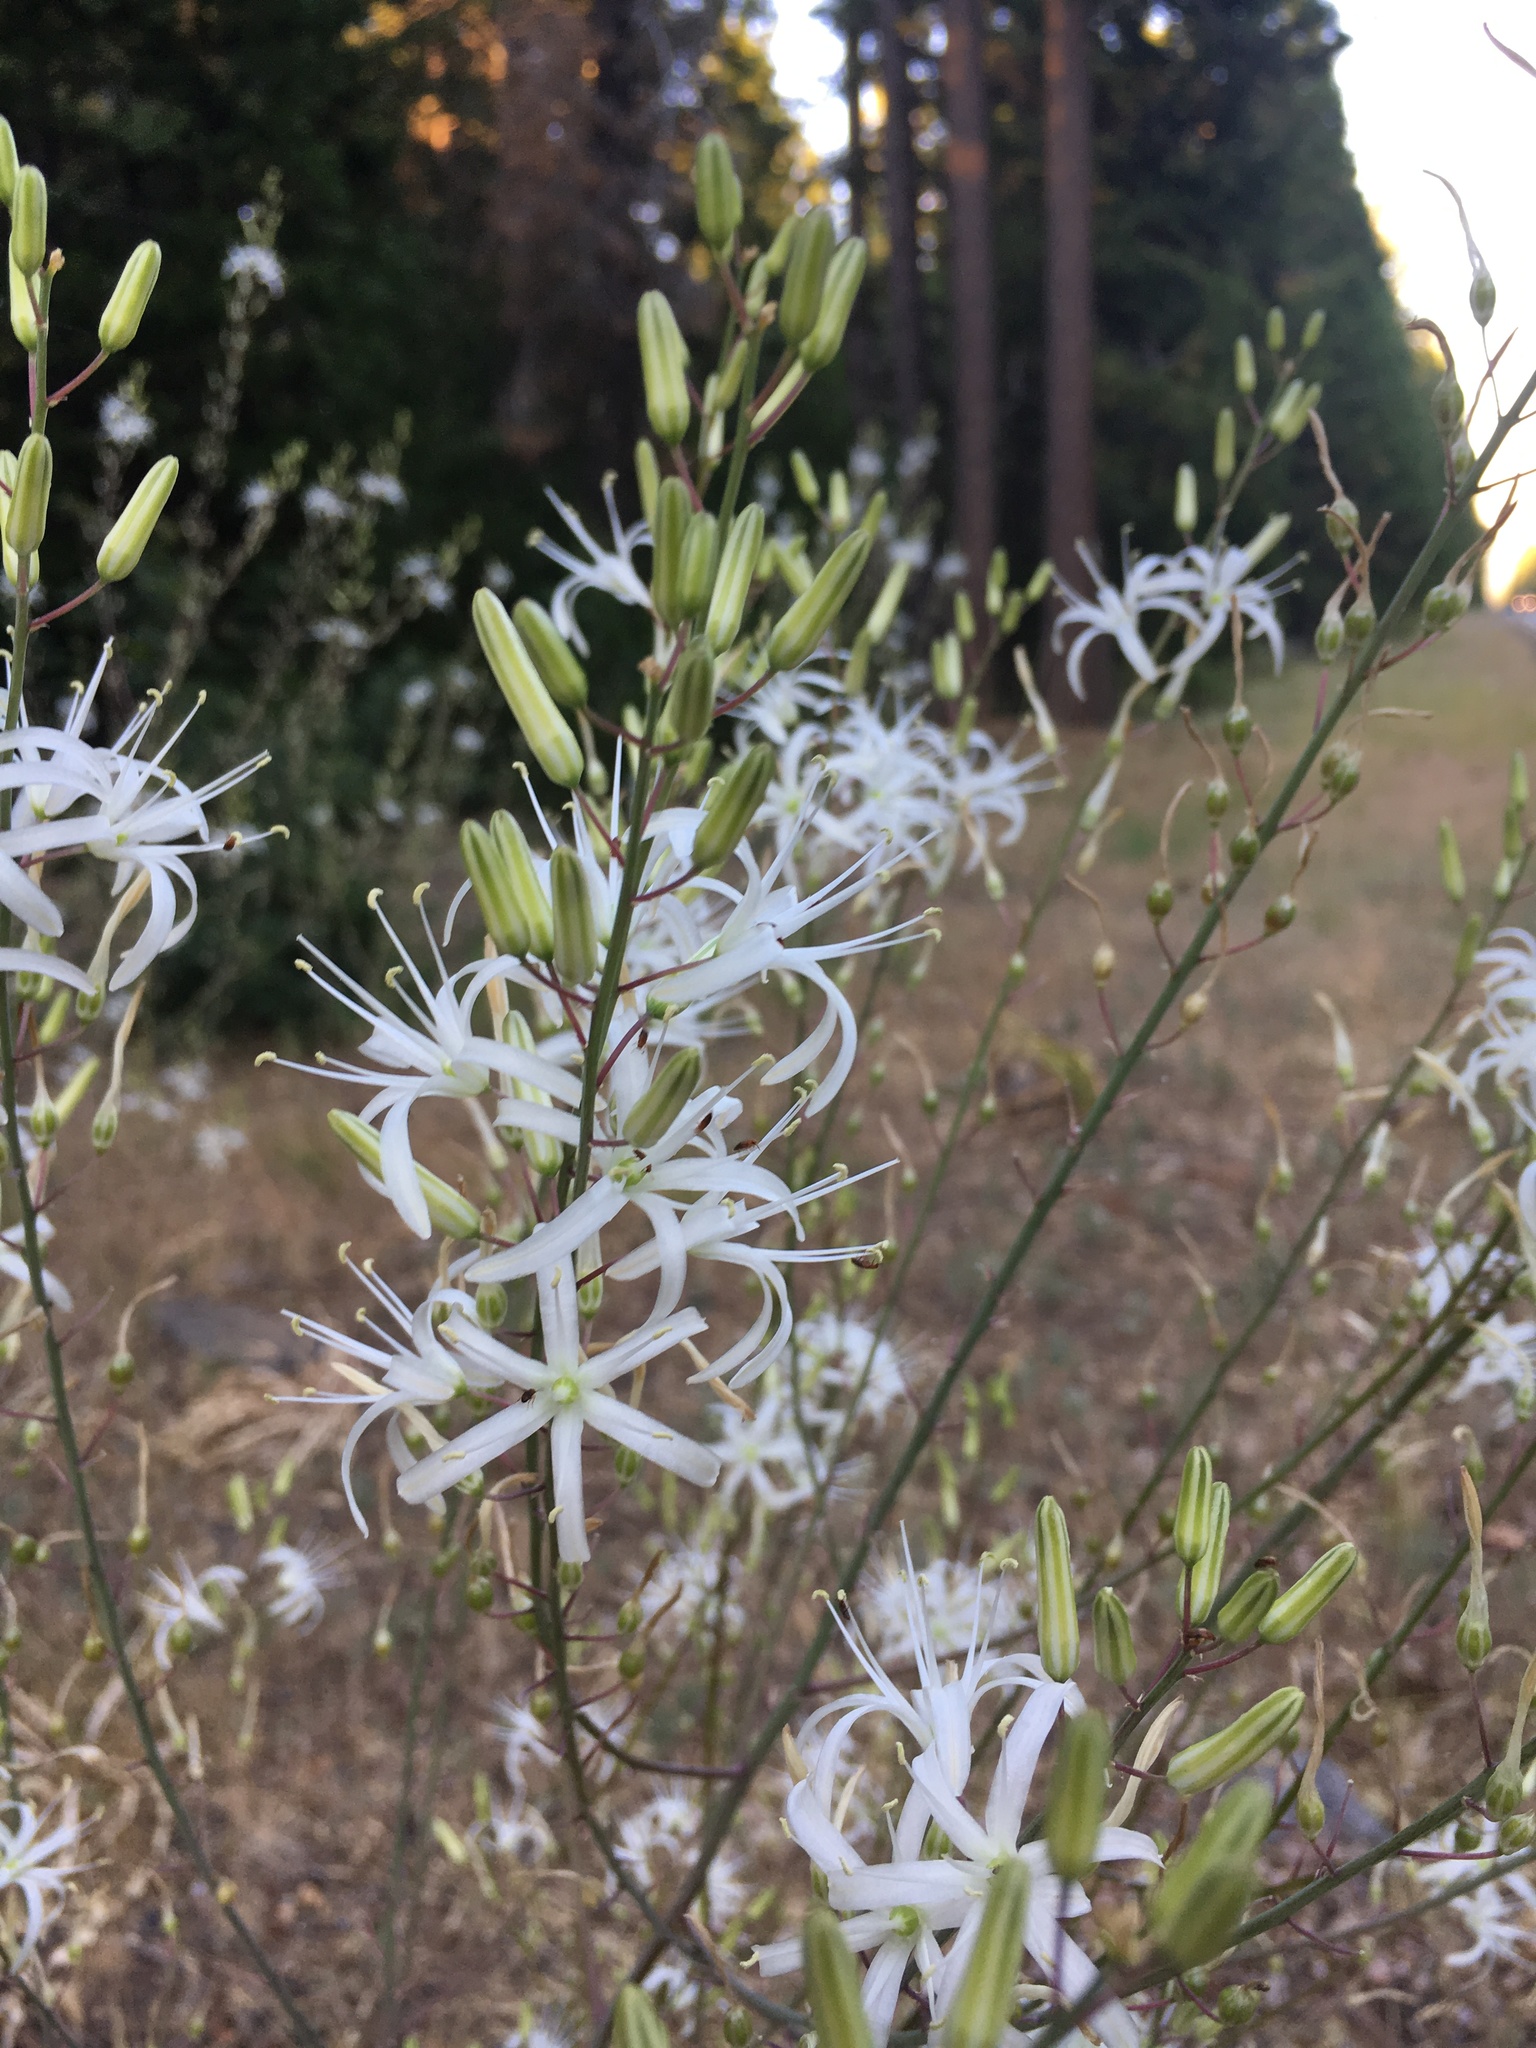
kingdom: Plantae
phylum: Tracheophyta
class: Liliopsida
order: Asparagales
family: Asparagaceae
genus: Chlorogalum
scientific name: Chlorogalum pomeridianum
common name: Amole
